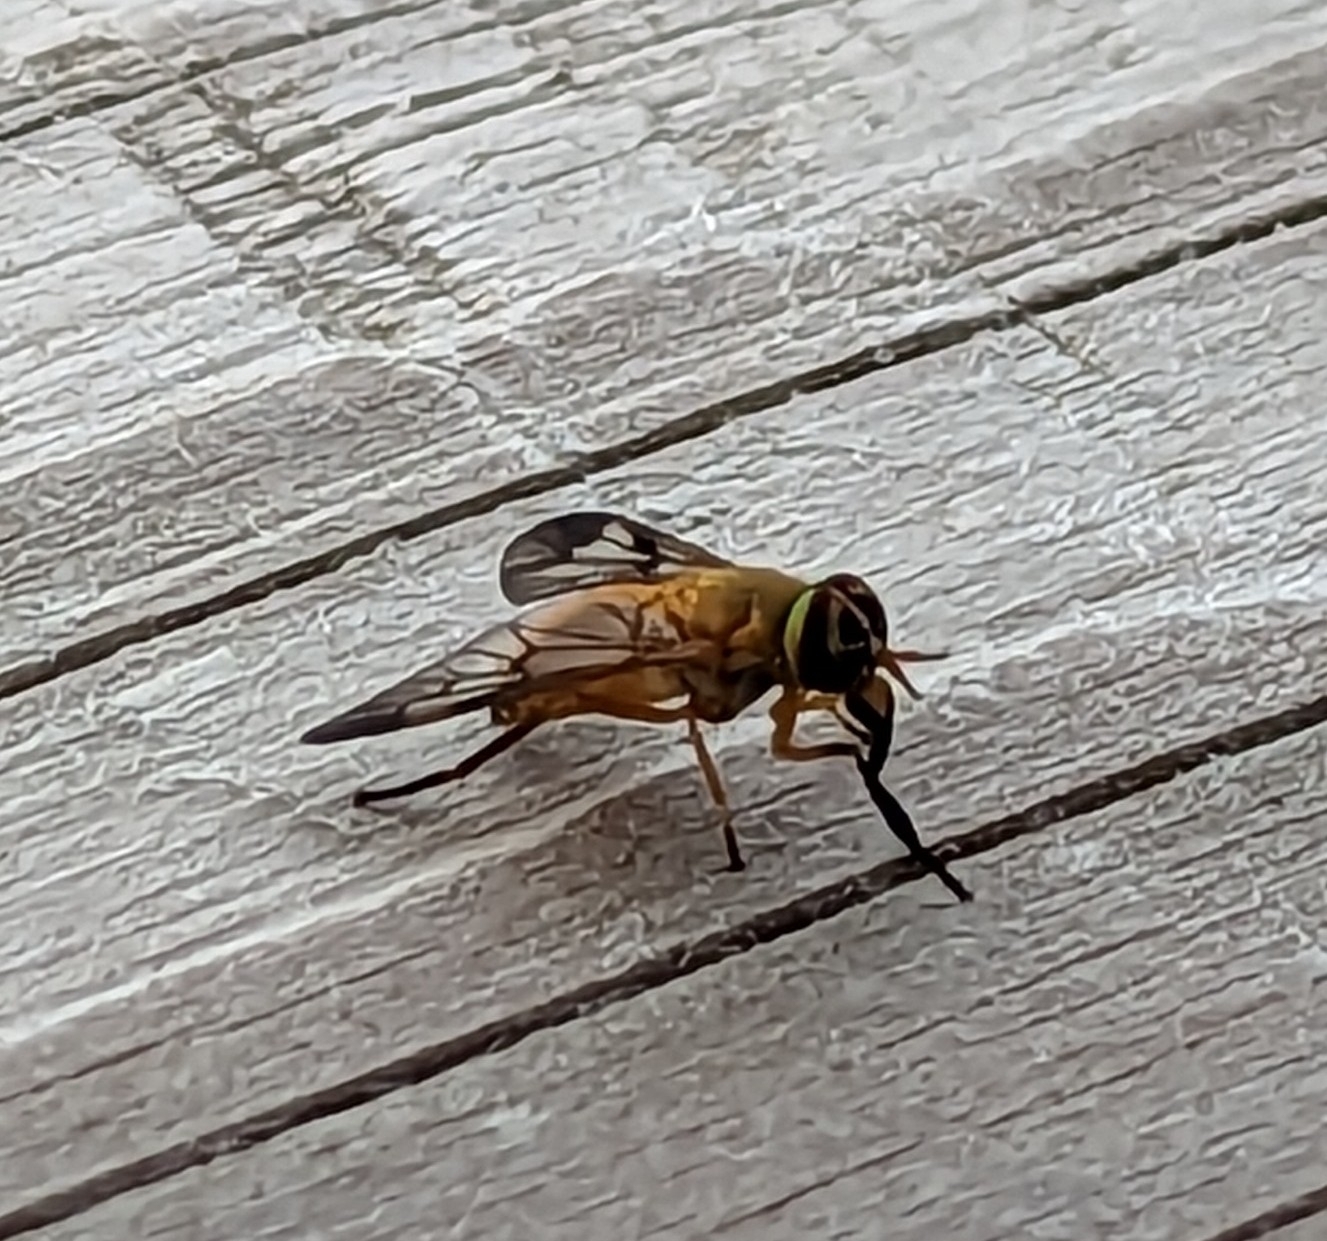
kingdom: Animalia
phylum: Arthropoda
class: Insecta
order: Diptera
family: Tabanidae
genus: Diachlorus
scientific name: Diachlorus ferrugatus
